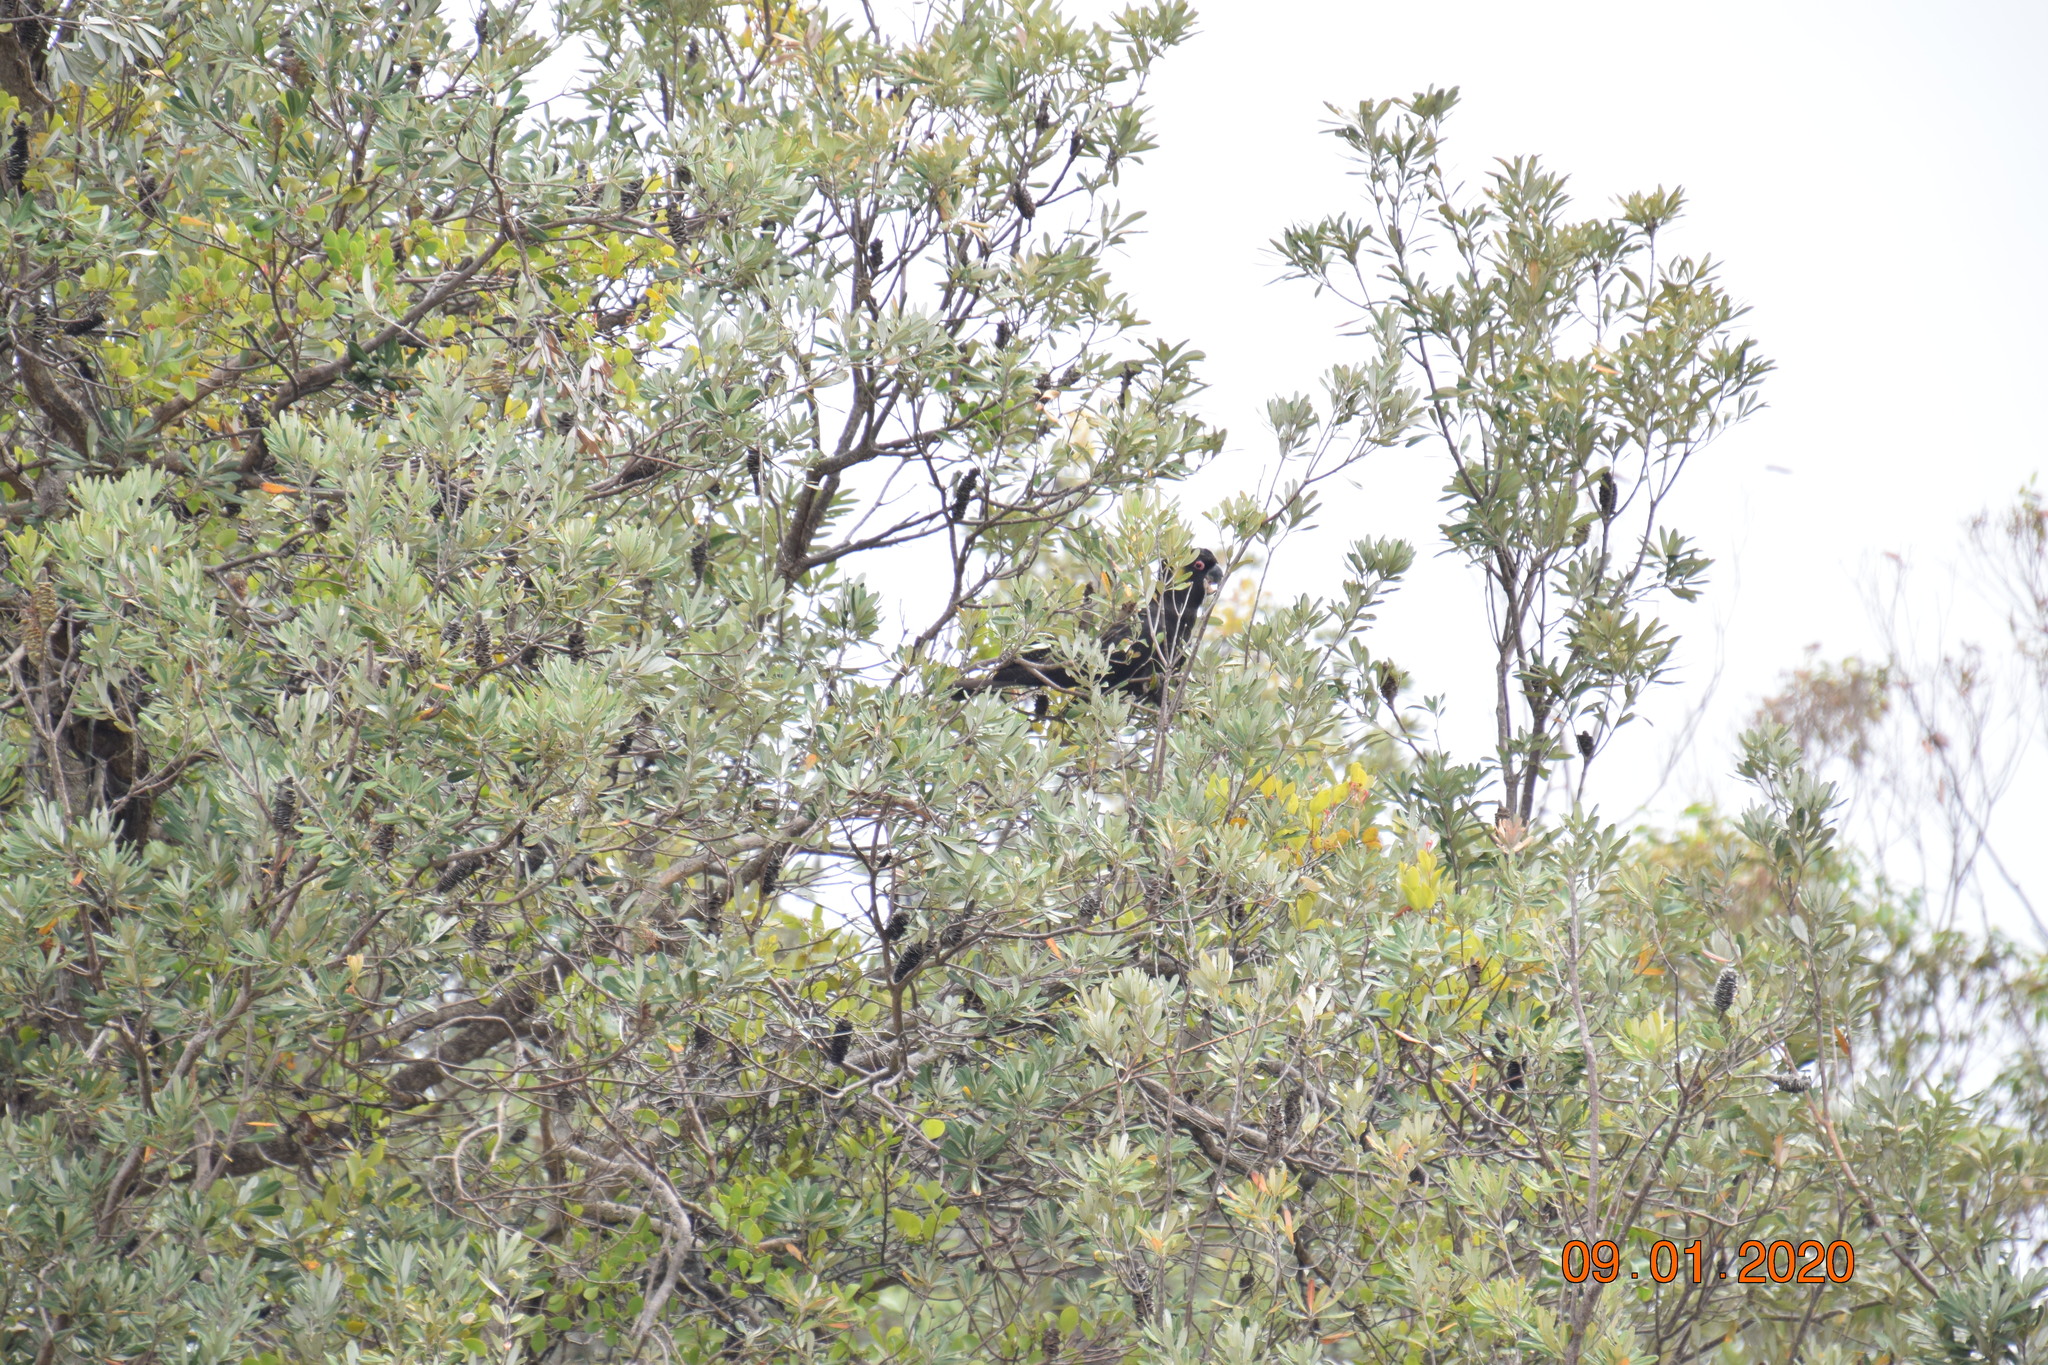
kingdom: Animalia
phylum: Chordata
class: Aves
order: Psittaciformes
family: Cacatuidae
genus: Zanda
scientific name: Zanda funerea
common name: Yellow-tailed black-cockatoo
